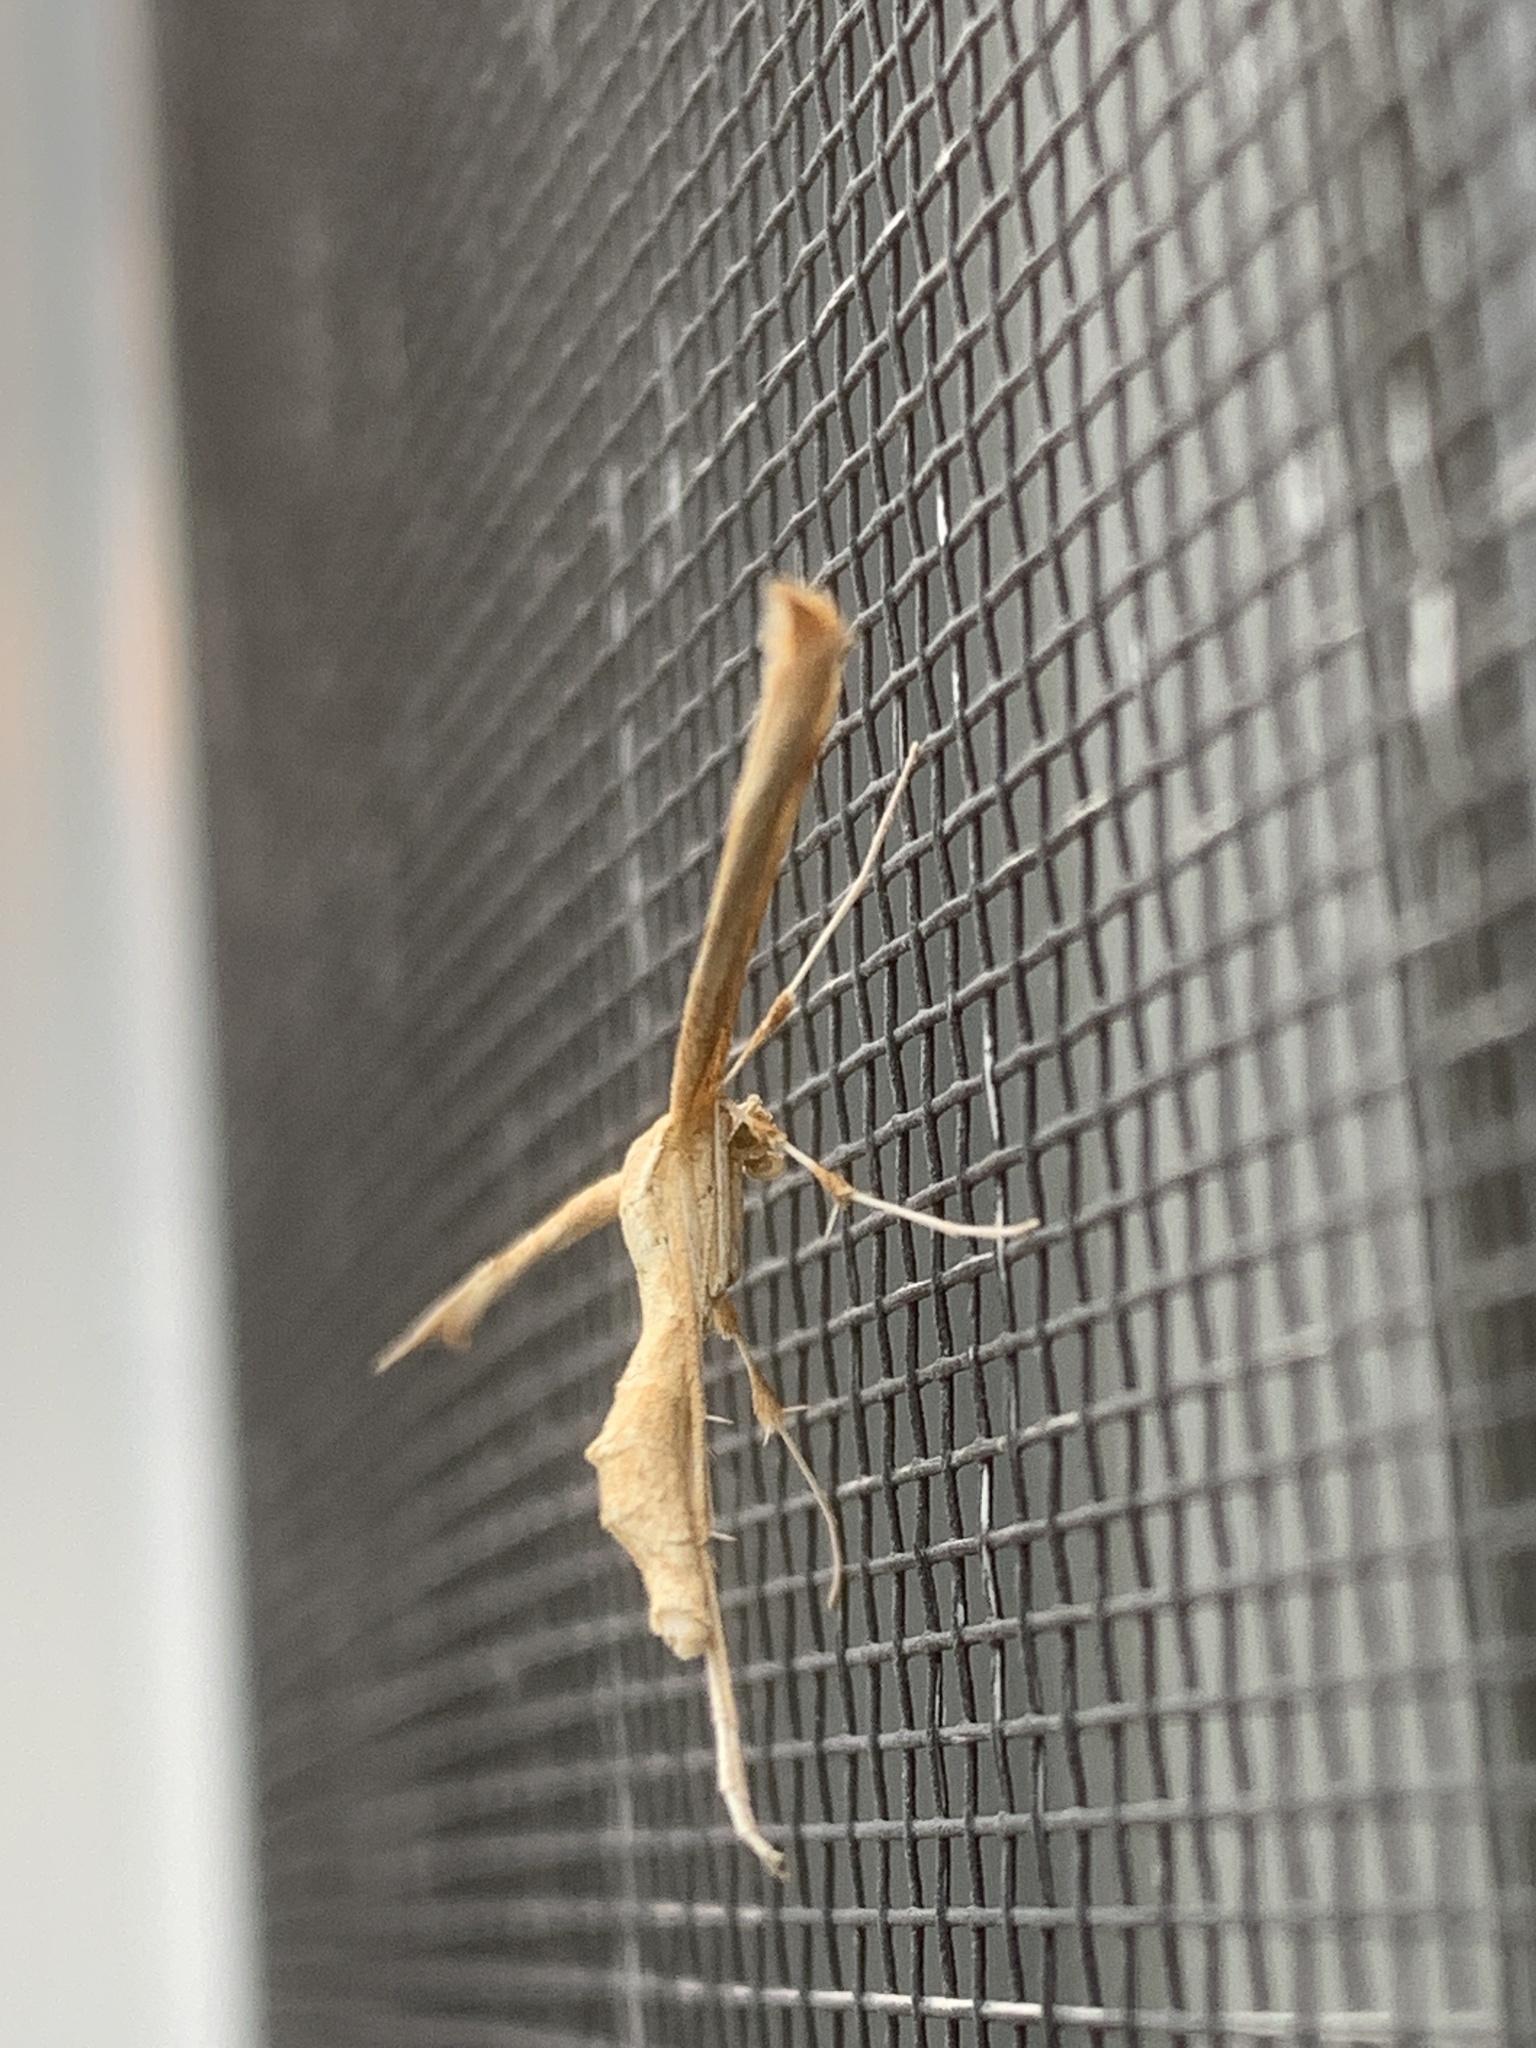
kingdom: Animalia
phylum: Arthropoda
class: Insecta
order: Lepidoptera
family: Pterophoridae
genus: Gillmeria
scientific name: Gillmeria pallidactyla
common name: Yarrow plume
